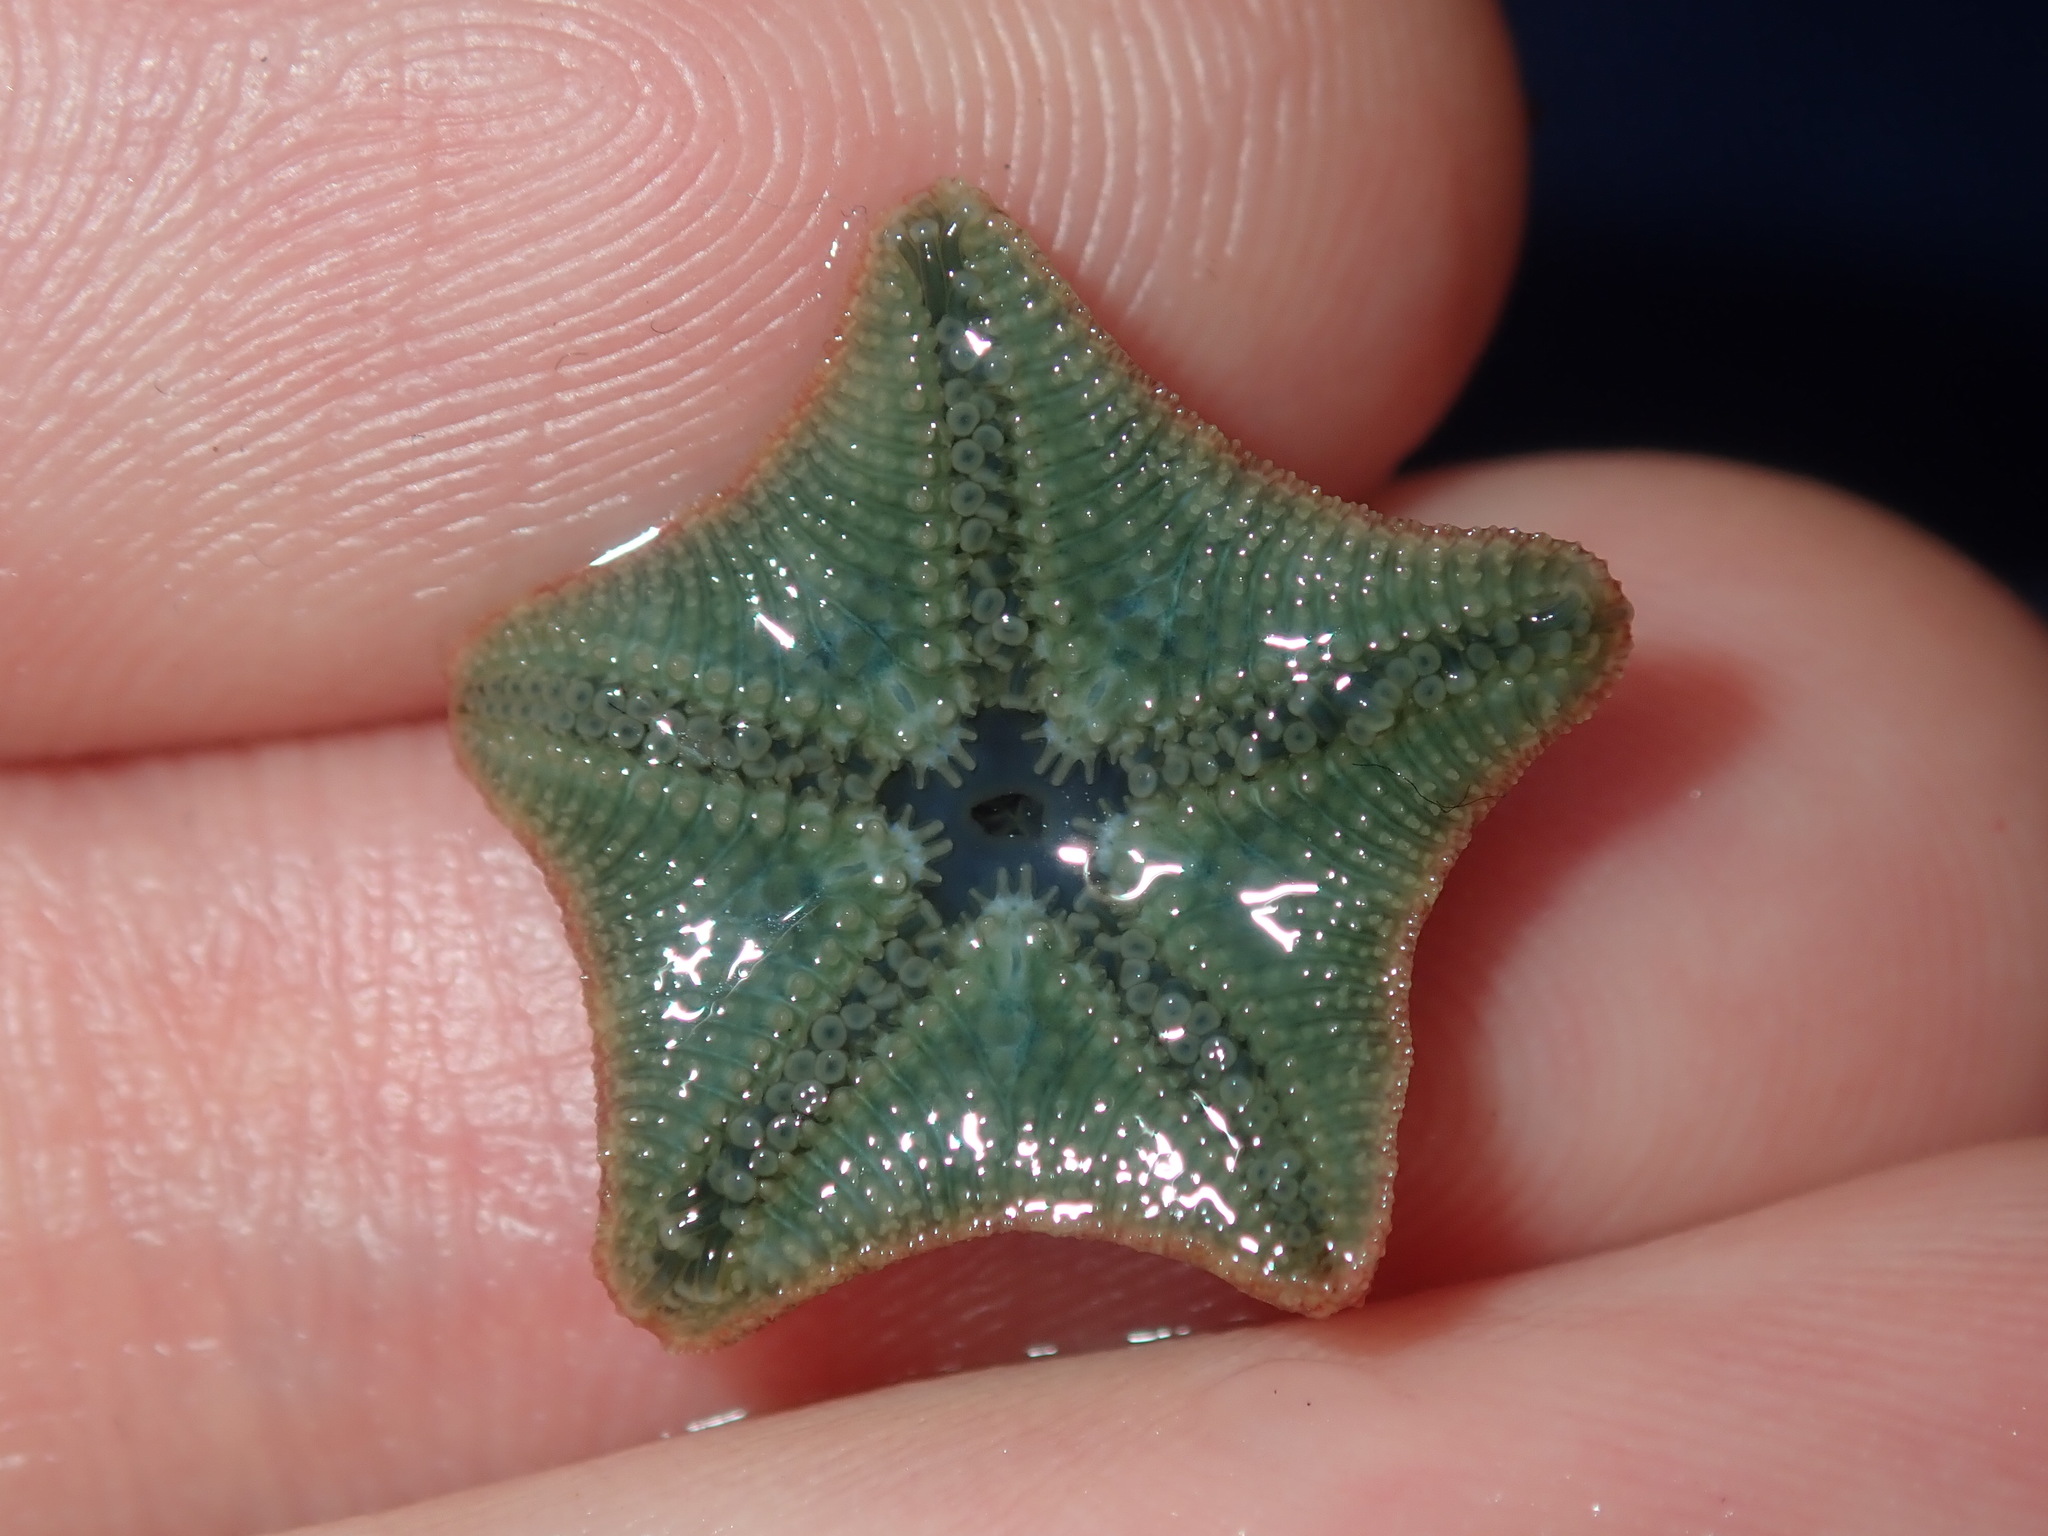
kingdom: Animalia
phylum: Echinodermata
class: Asteroidea
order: Valvatida
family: Asterinidae
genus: Parvulastra
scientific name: Parvulastra exigua
